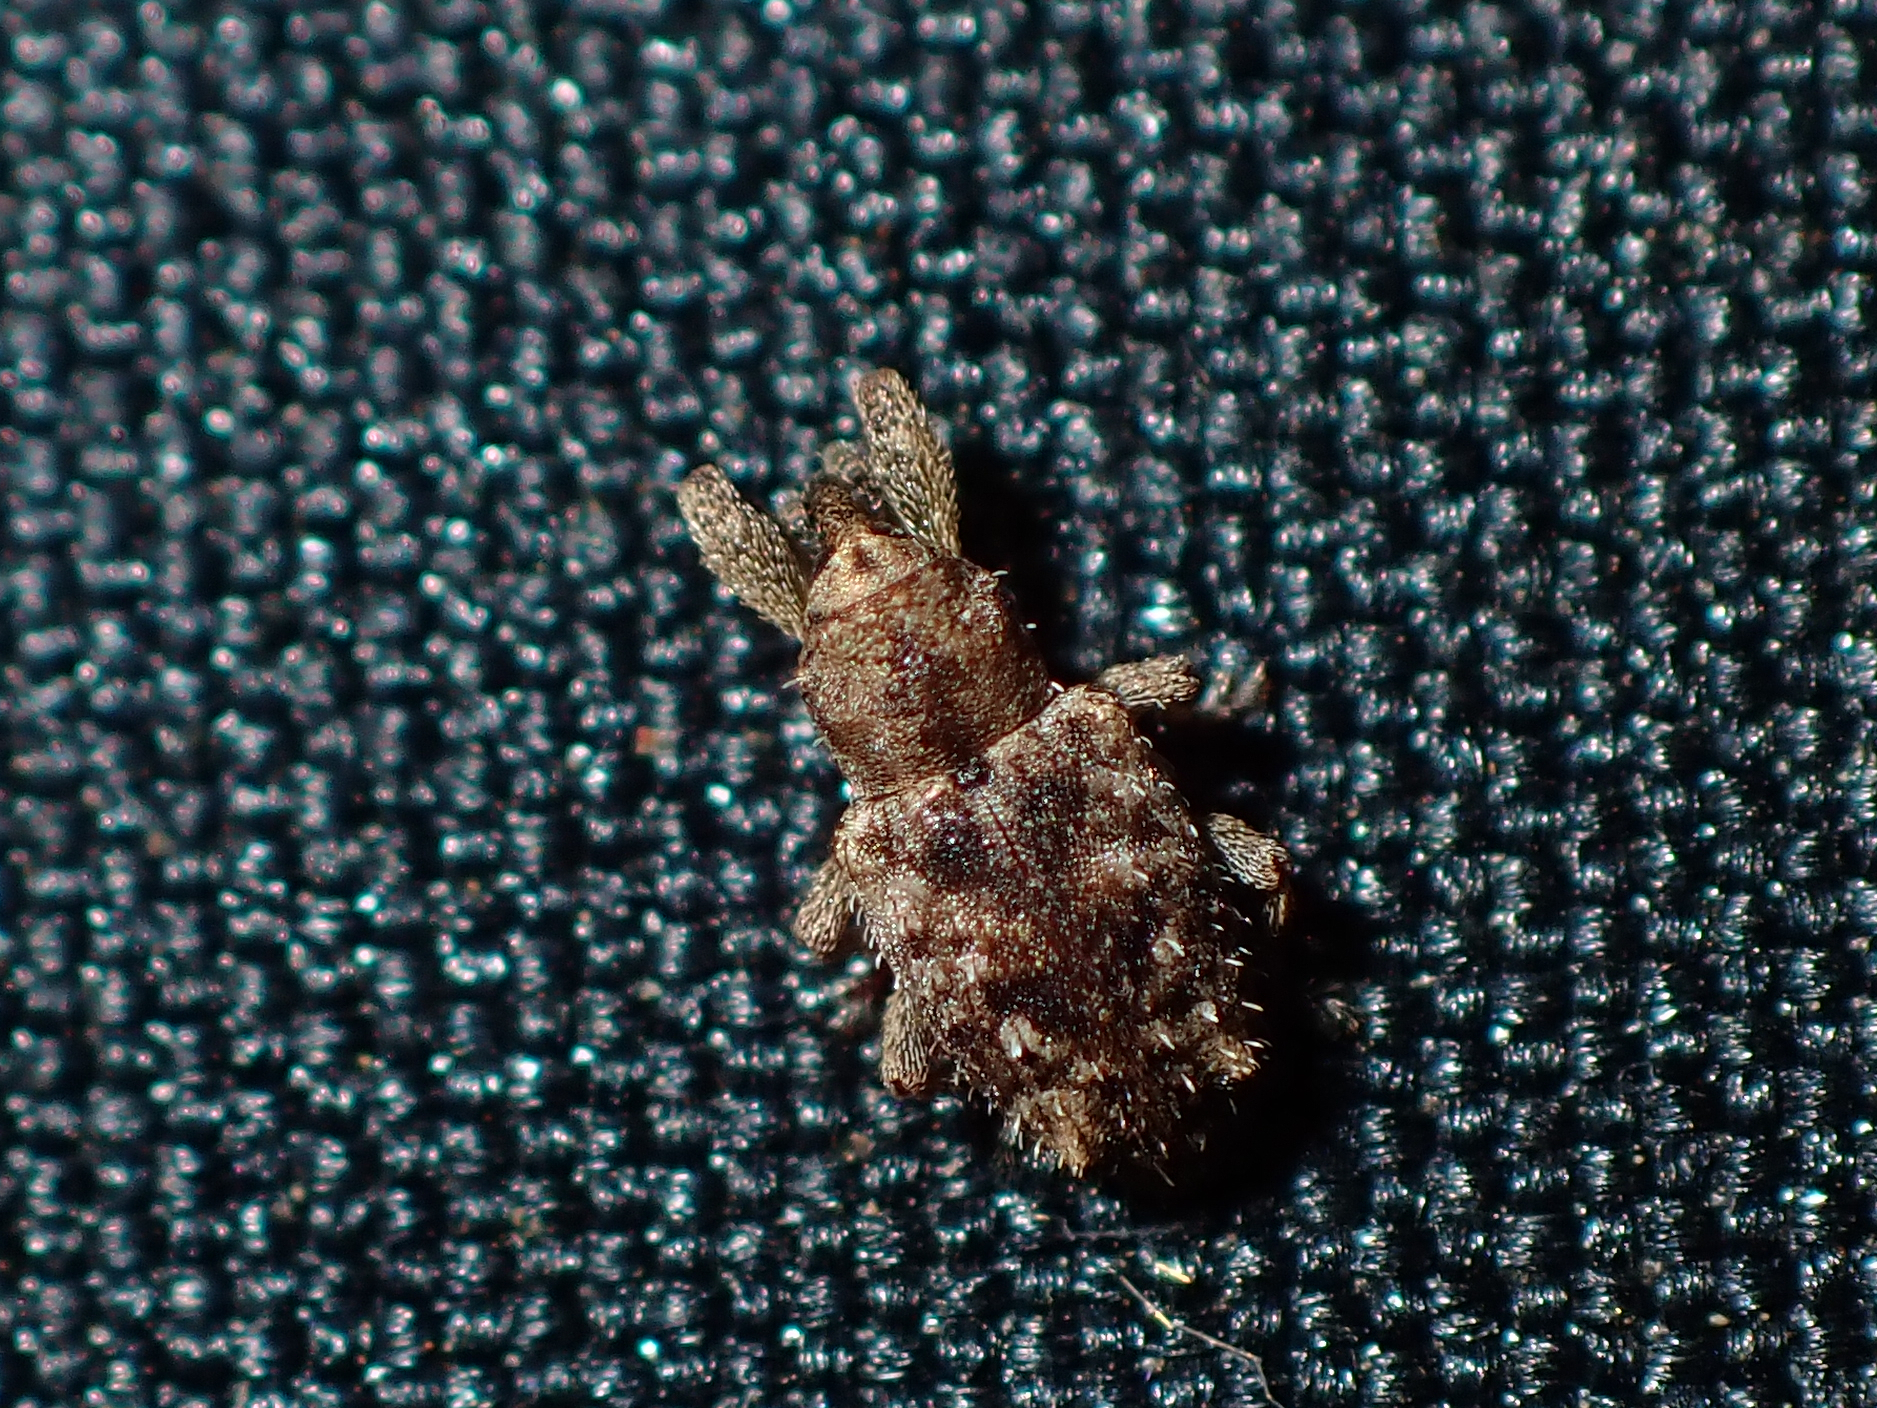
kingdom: Animalia
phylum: Arthropoda
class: Insecta
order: Coleoptera
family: Curculionidae
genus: Praolepra
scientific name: Praolepra infusca
